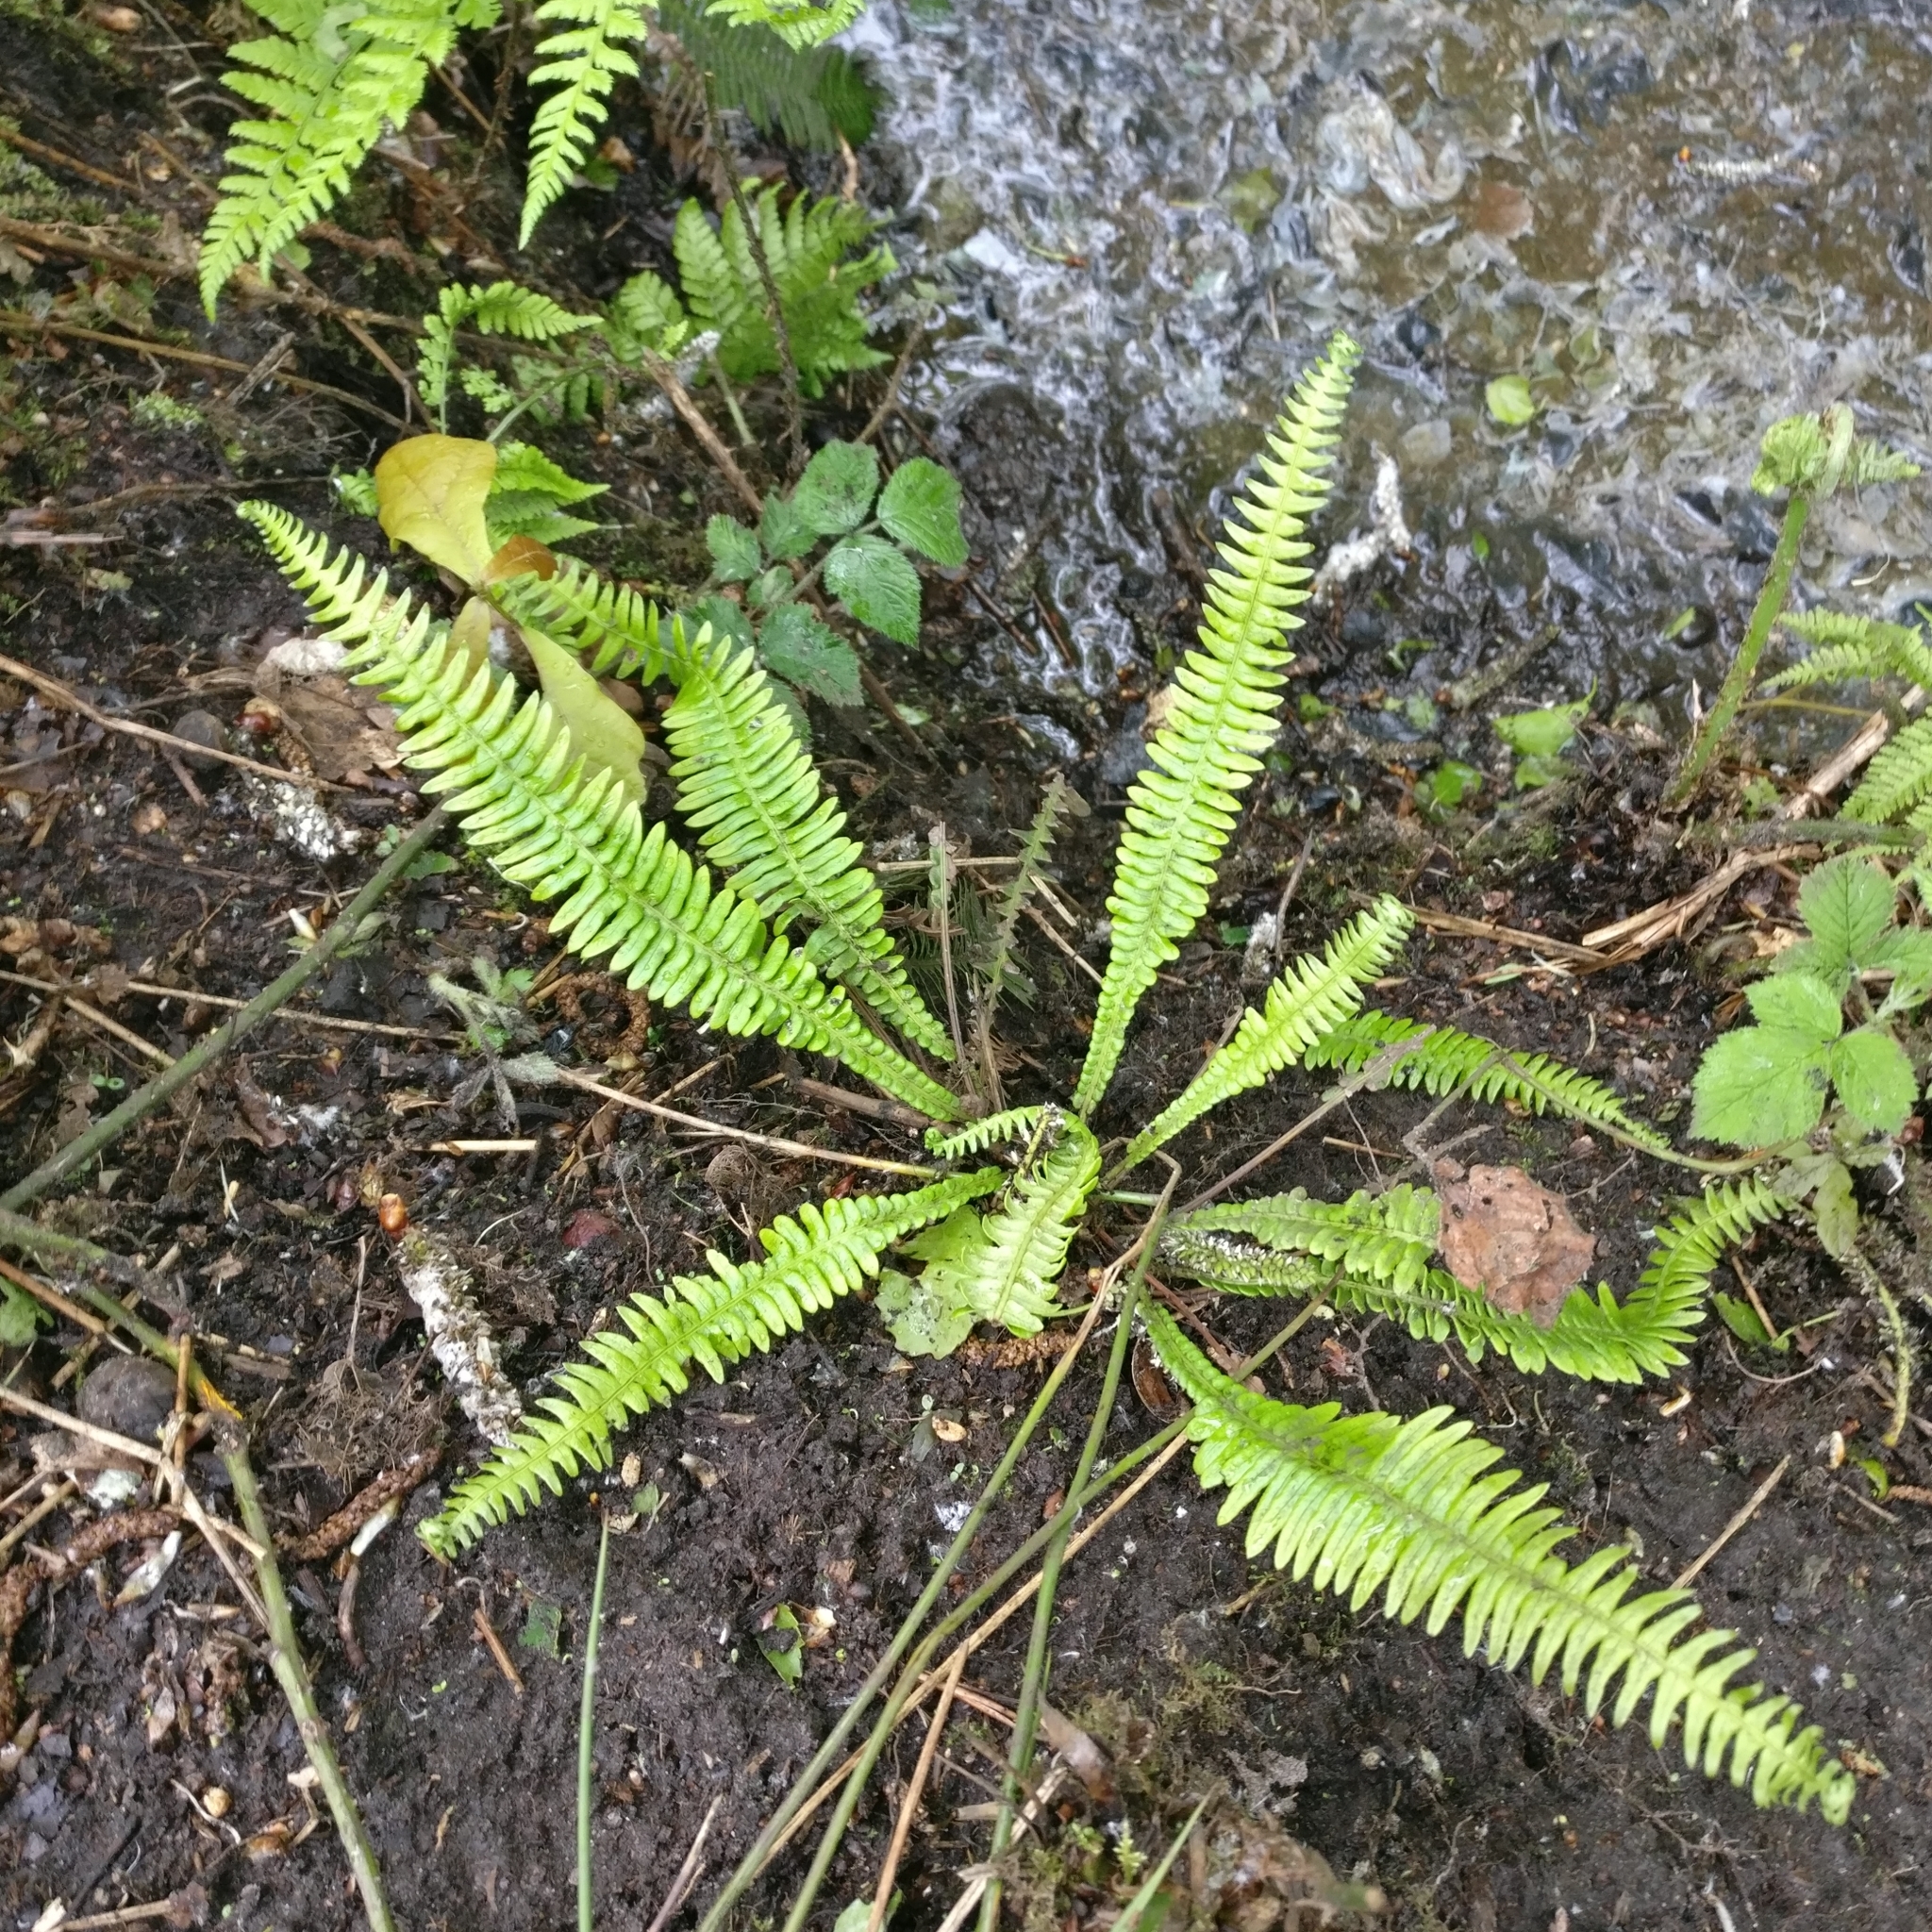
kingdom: Plantae
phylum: Tracheophyta
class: Polypodiopsida
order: Polypodiales
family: Blechnaceae
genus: Struthiopteris
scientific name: Struthiopteris spicant
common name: Deer fern
